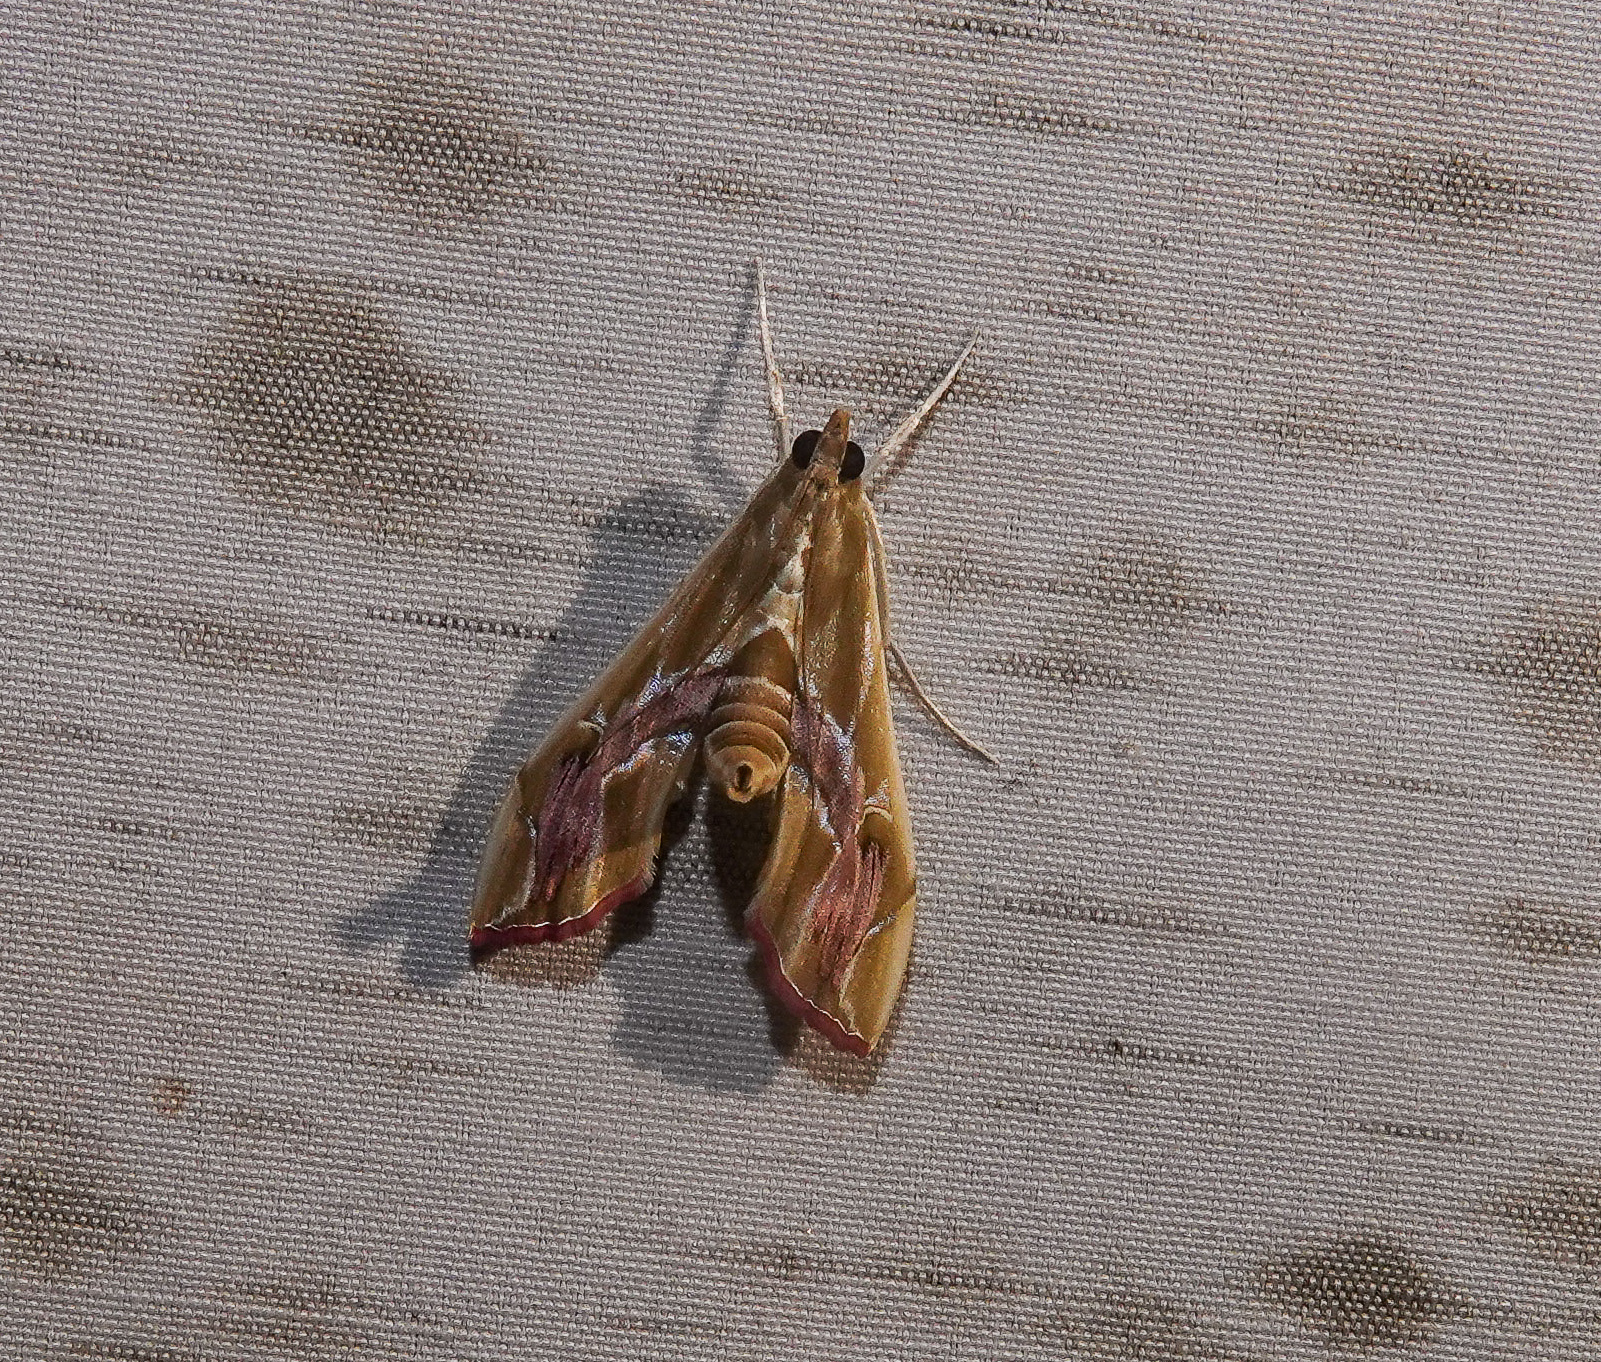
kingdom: Animalia
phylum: Arthropoda
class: Insecta
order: Lepidoptera
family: Crambidae
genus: Agathodes
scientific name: Agathodes ostentalis
